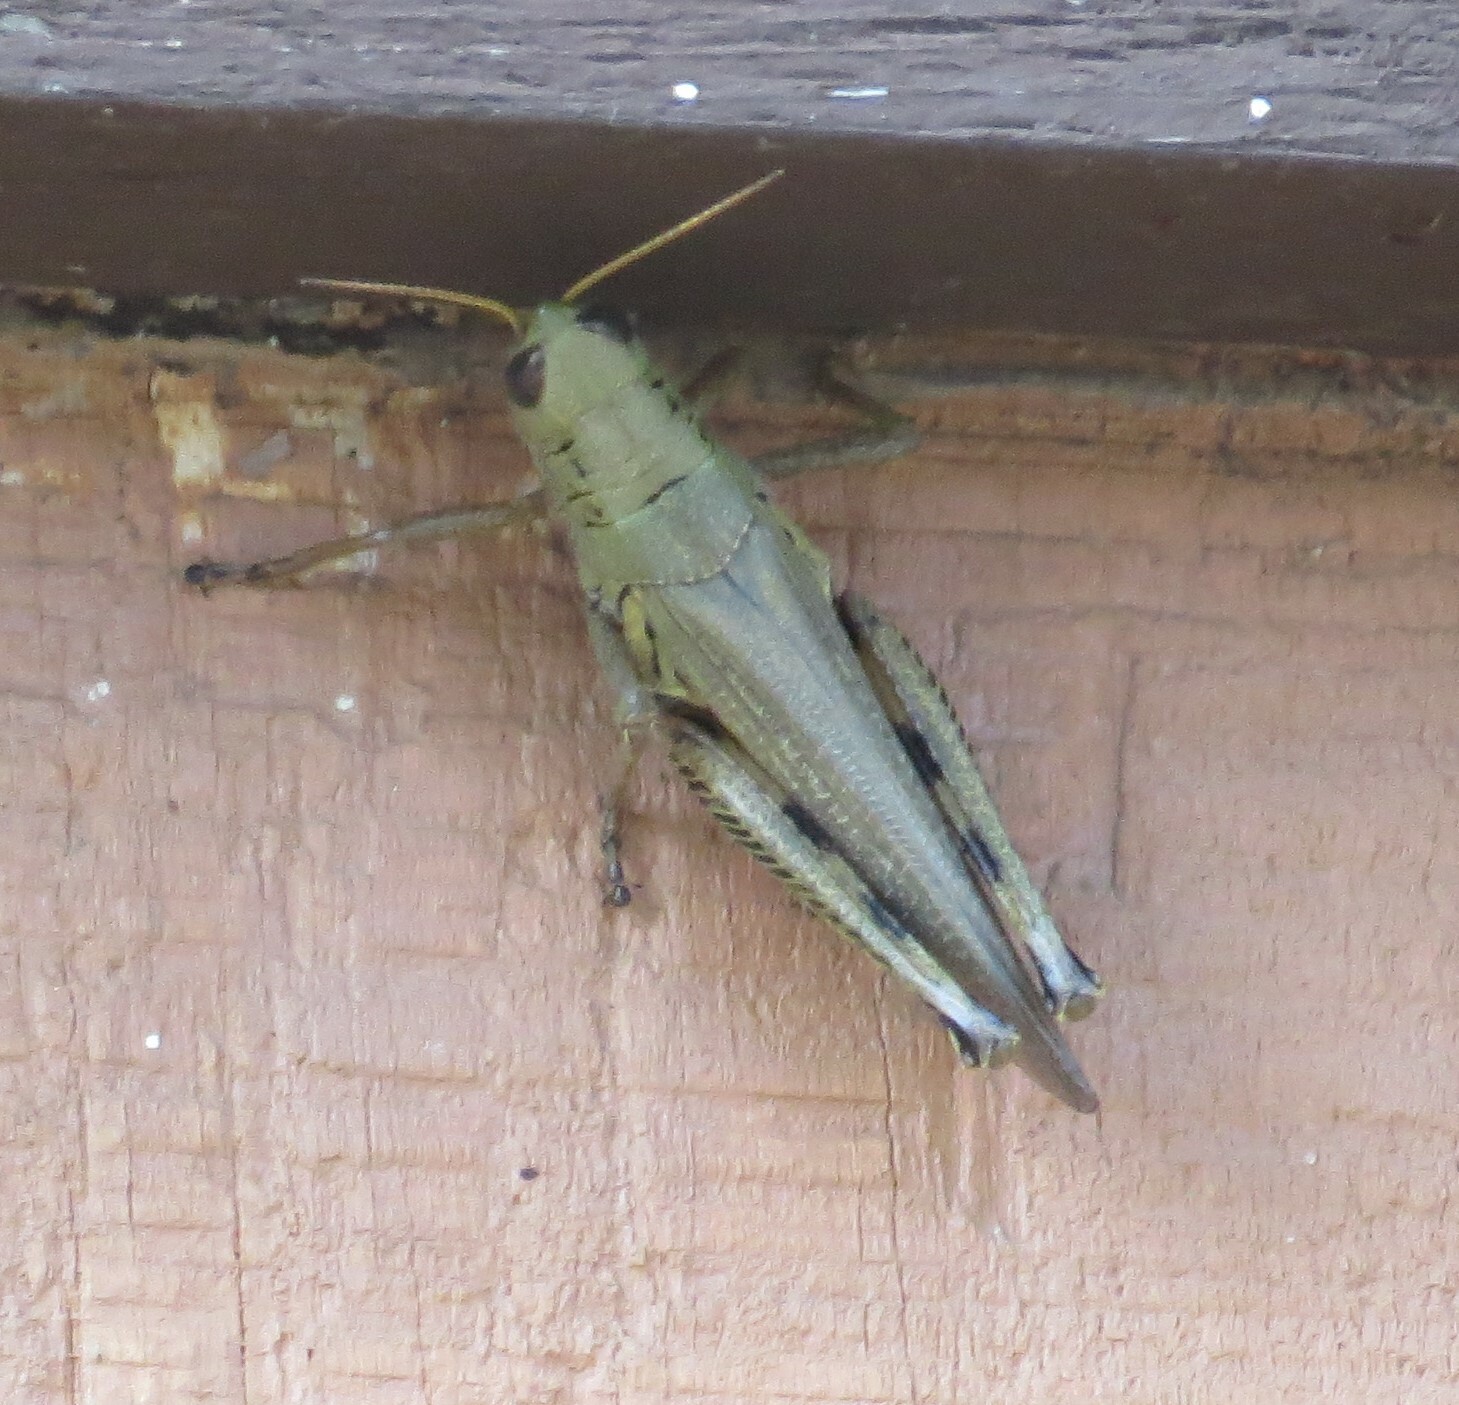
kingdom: Animalia
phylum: Arthropoda
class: Insecta
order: Orthoptera
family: Acrididae
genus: Melanoplus
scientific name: Melanoplus differentialis
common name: Differential grasshopper
